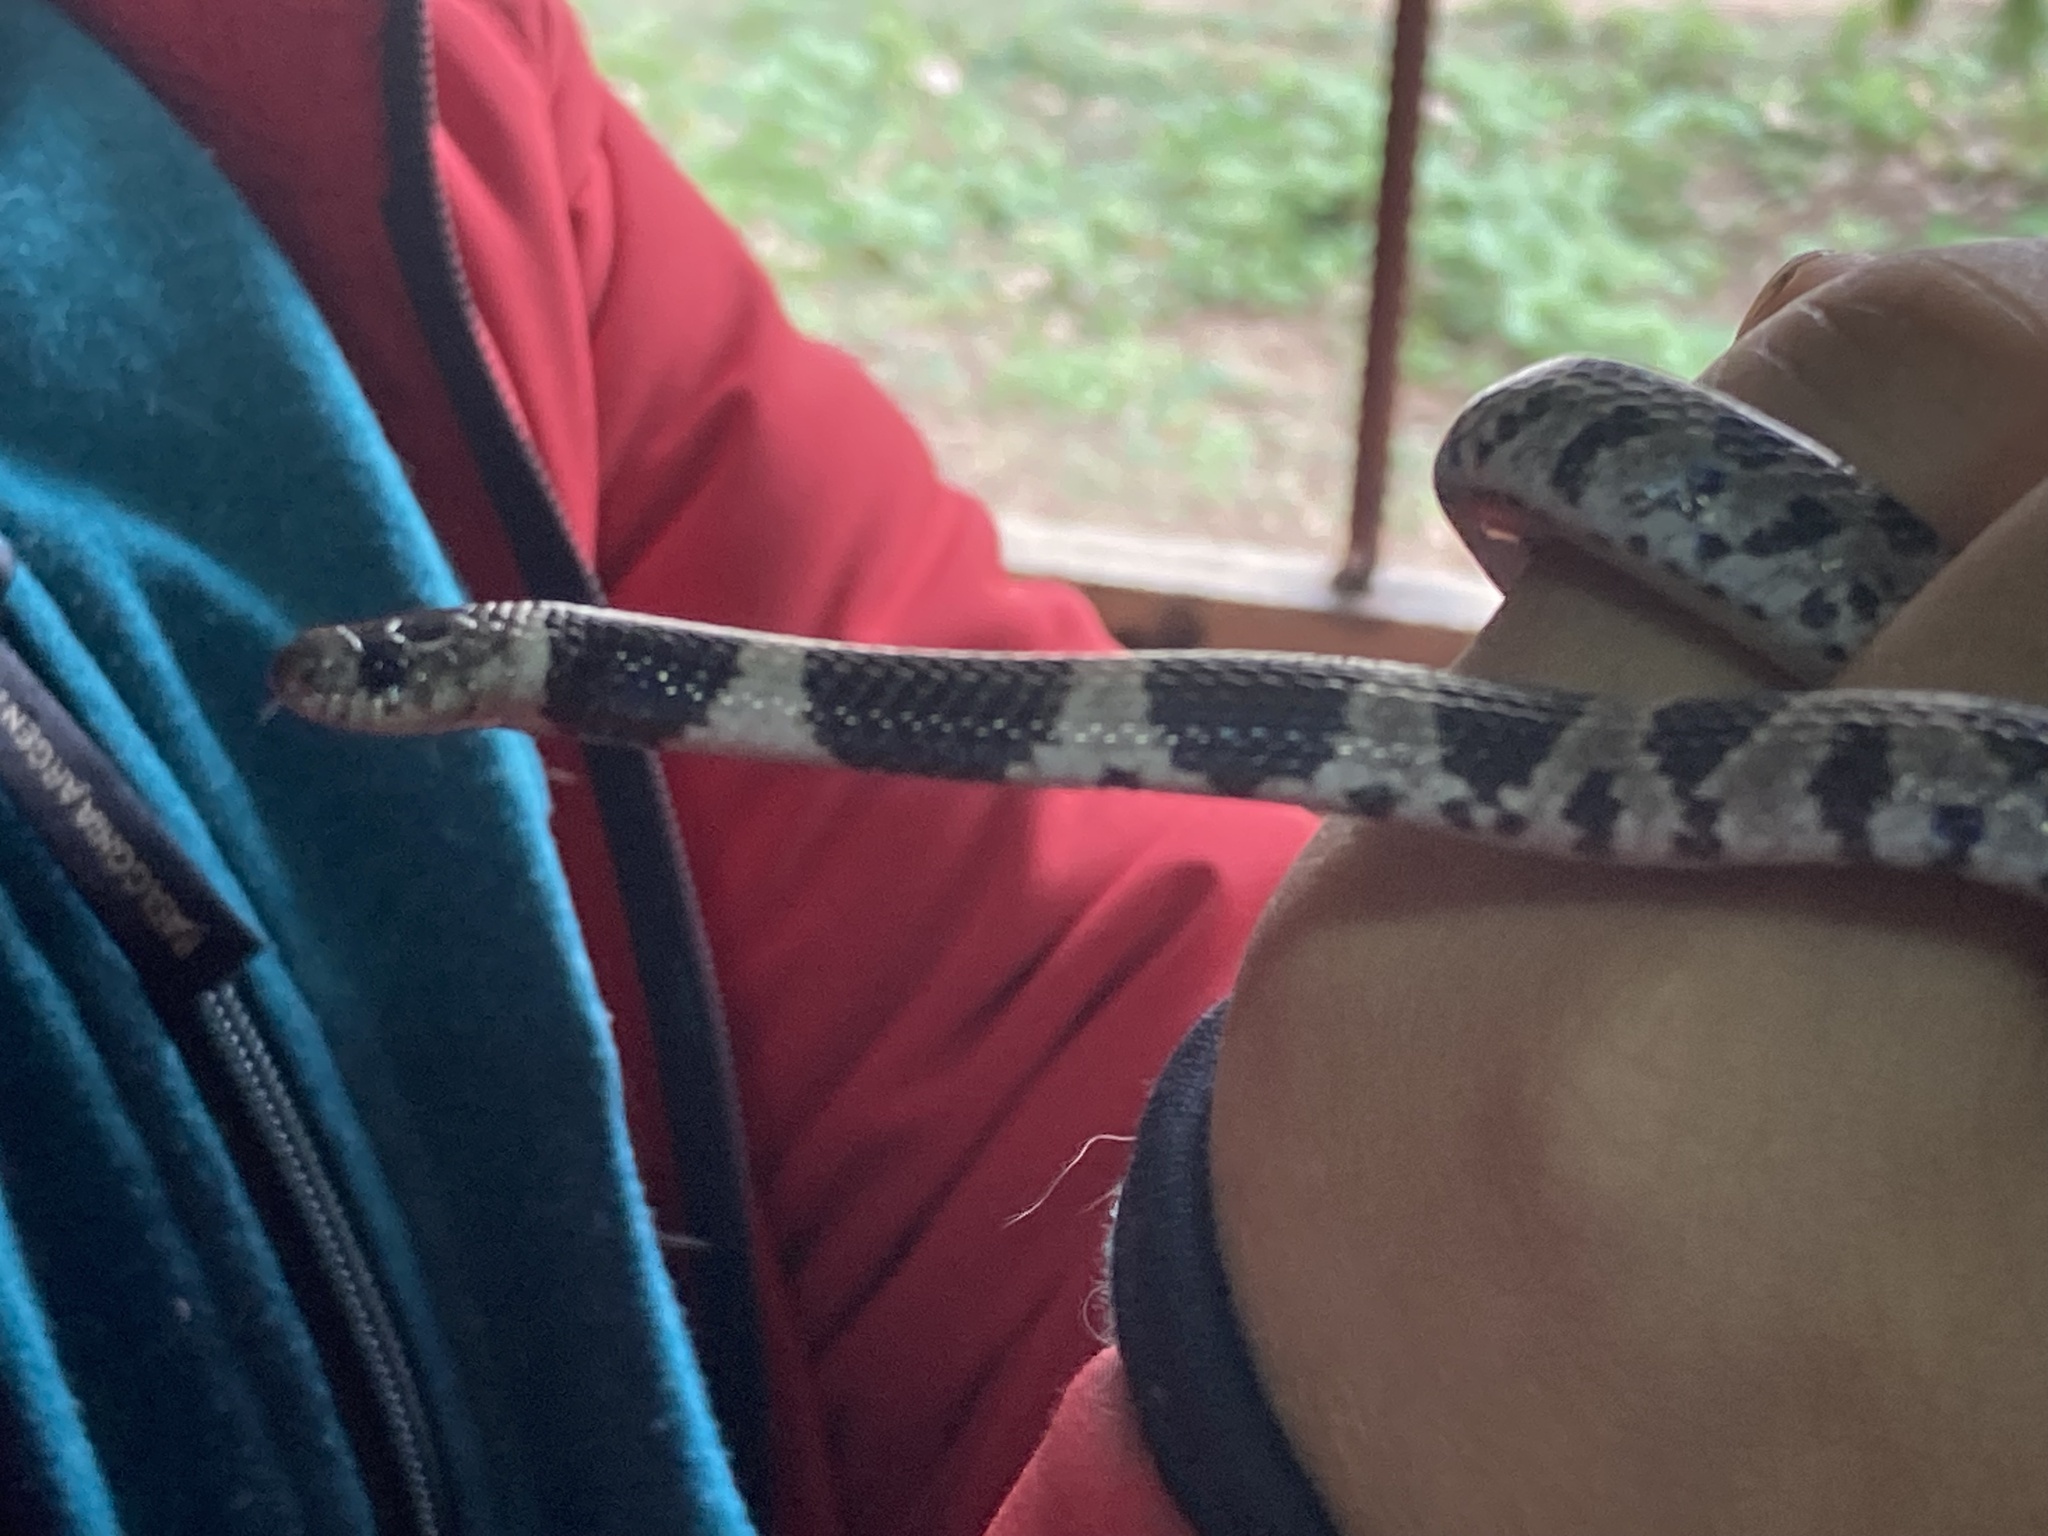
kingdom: Animalia
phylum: Chordata
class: Squamata
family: Colubridae
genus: Dipsas
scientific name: Dipsas turgida
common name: Bolivian tree snake
